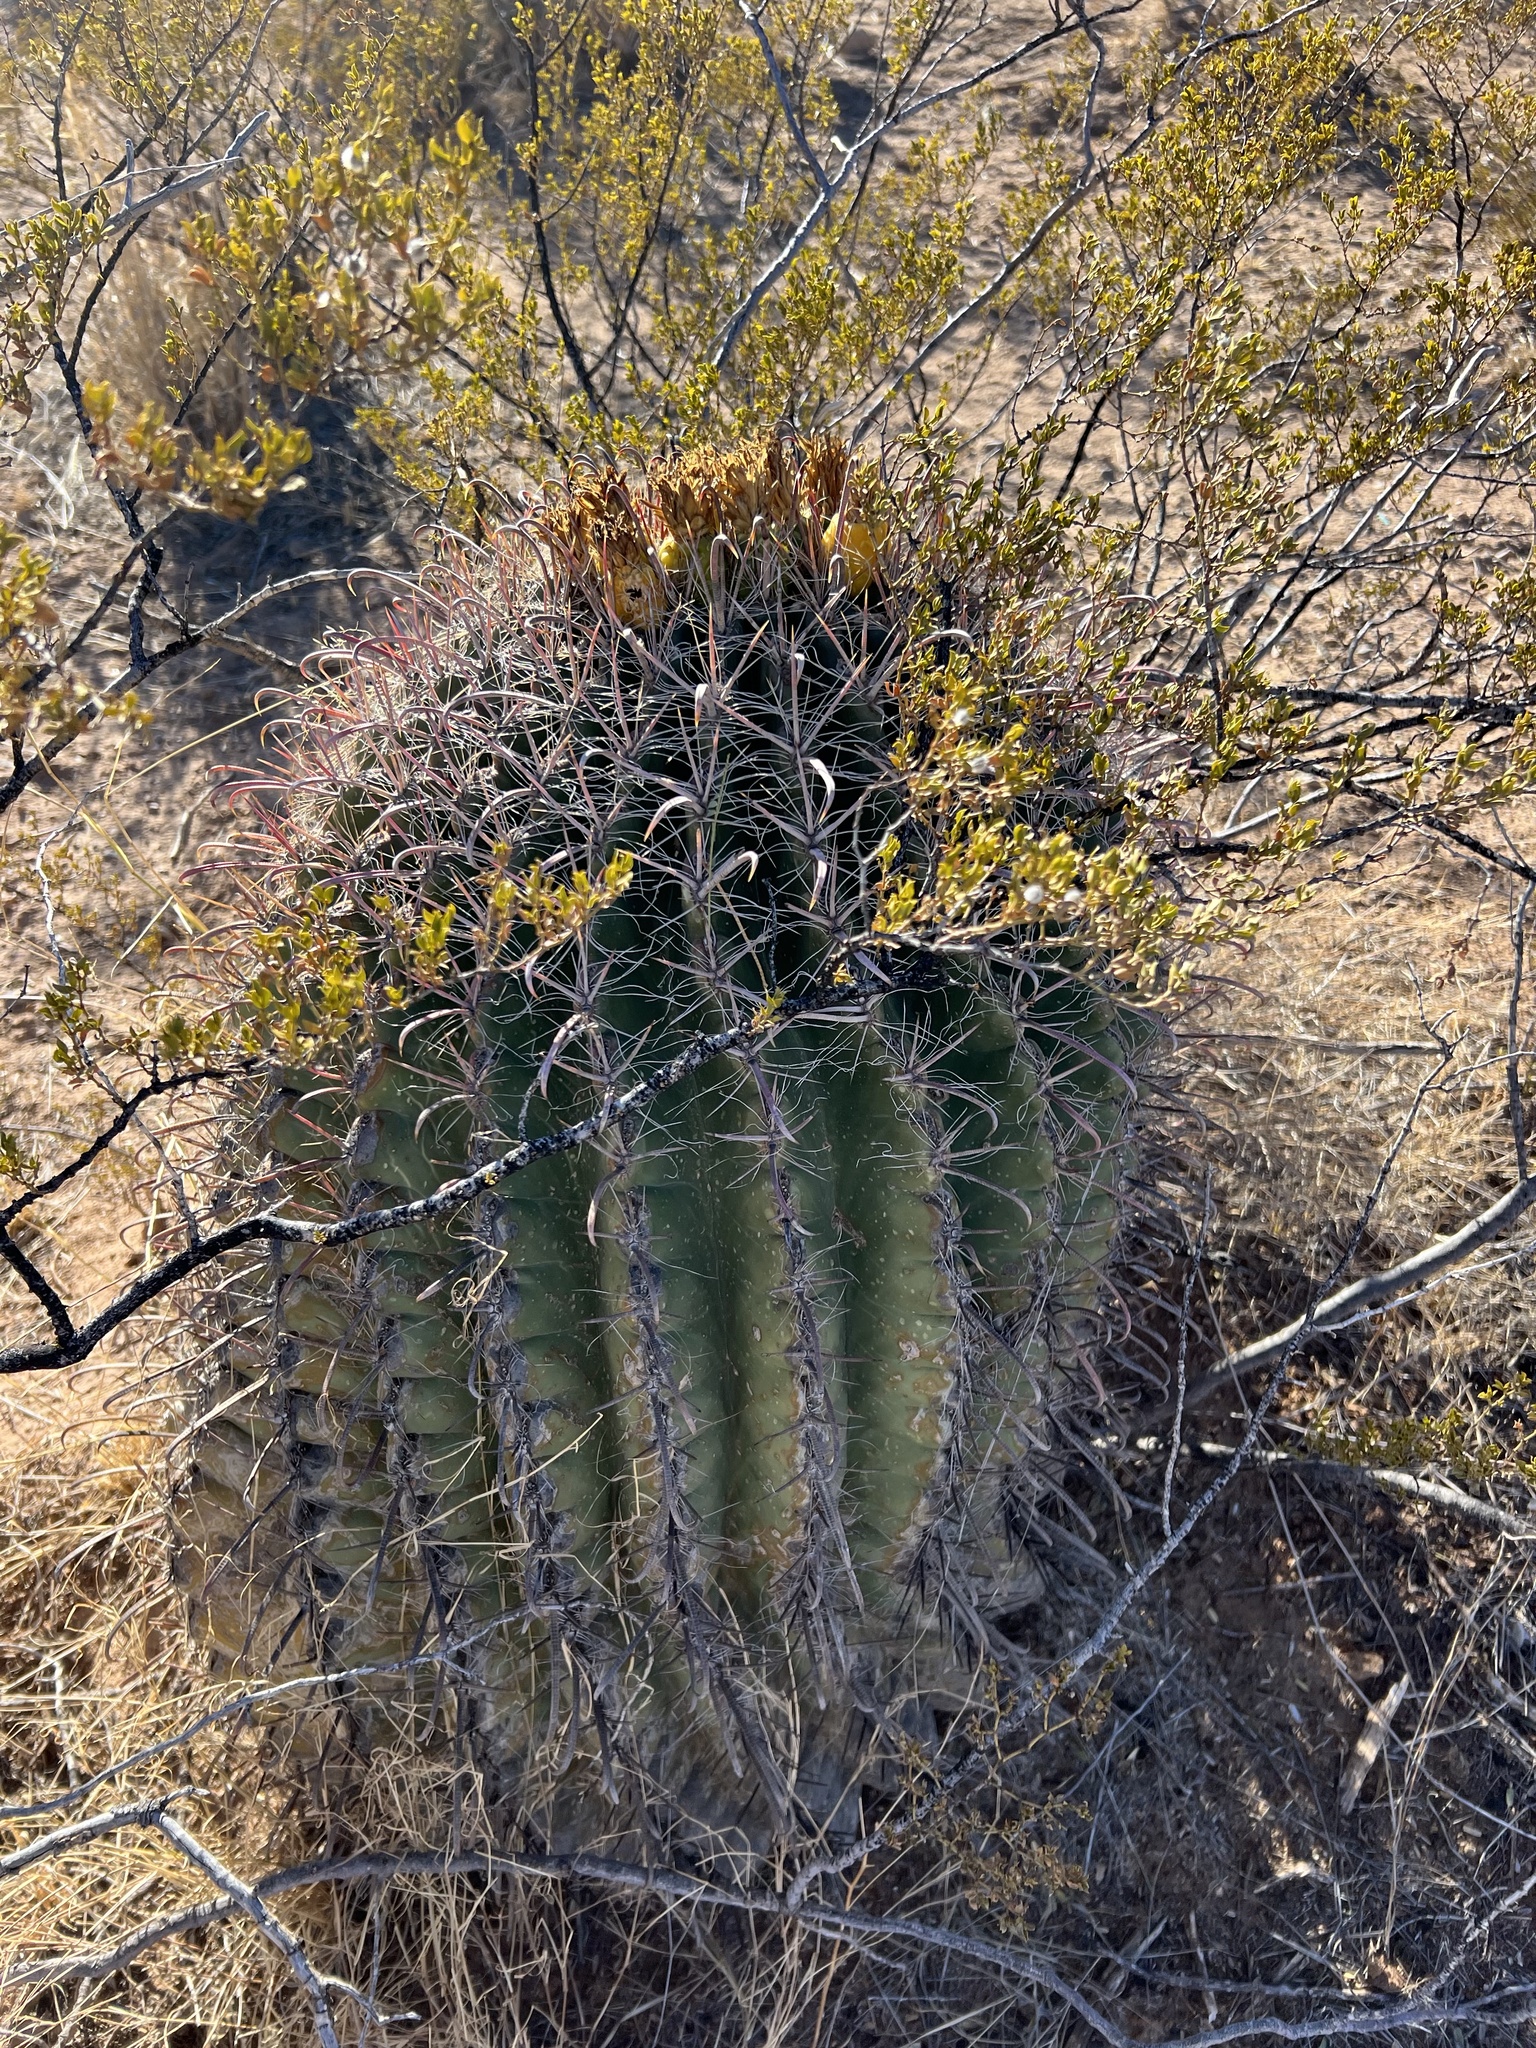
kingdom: Plantae
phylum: Tracheophyta
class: Magnoliopsida
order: Caryophyllales
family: Cactaceae
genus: Ferocactus
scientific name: Ferocactus wislizeni
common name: Candy barrel cactus
